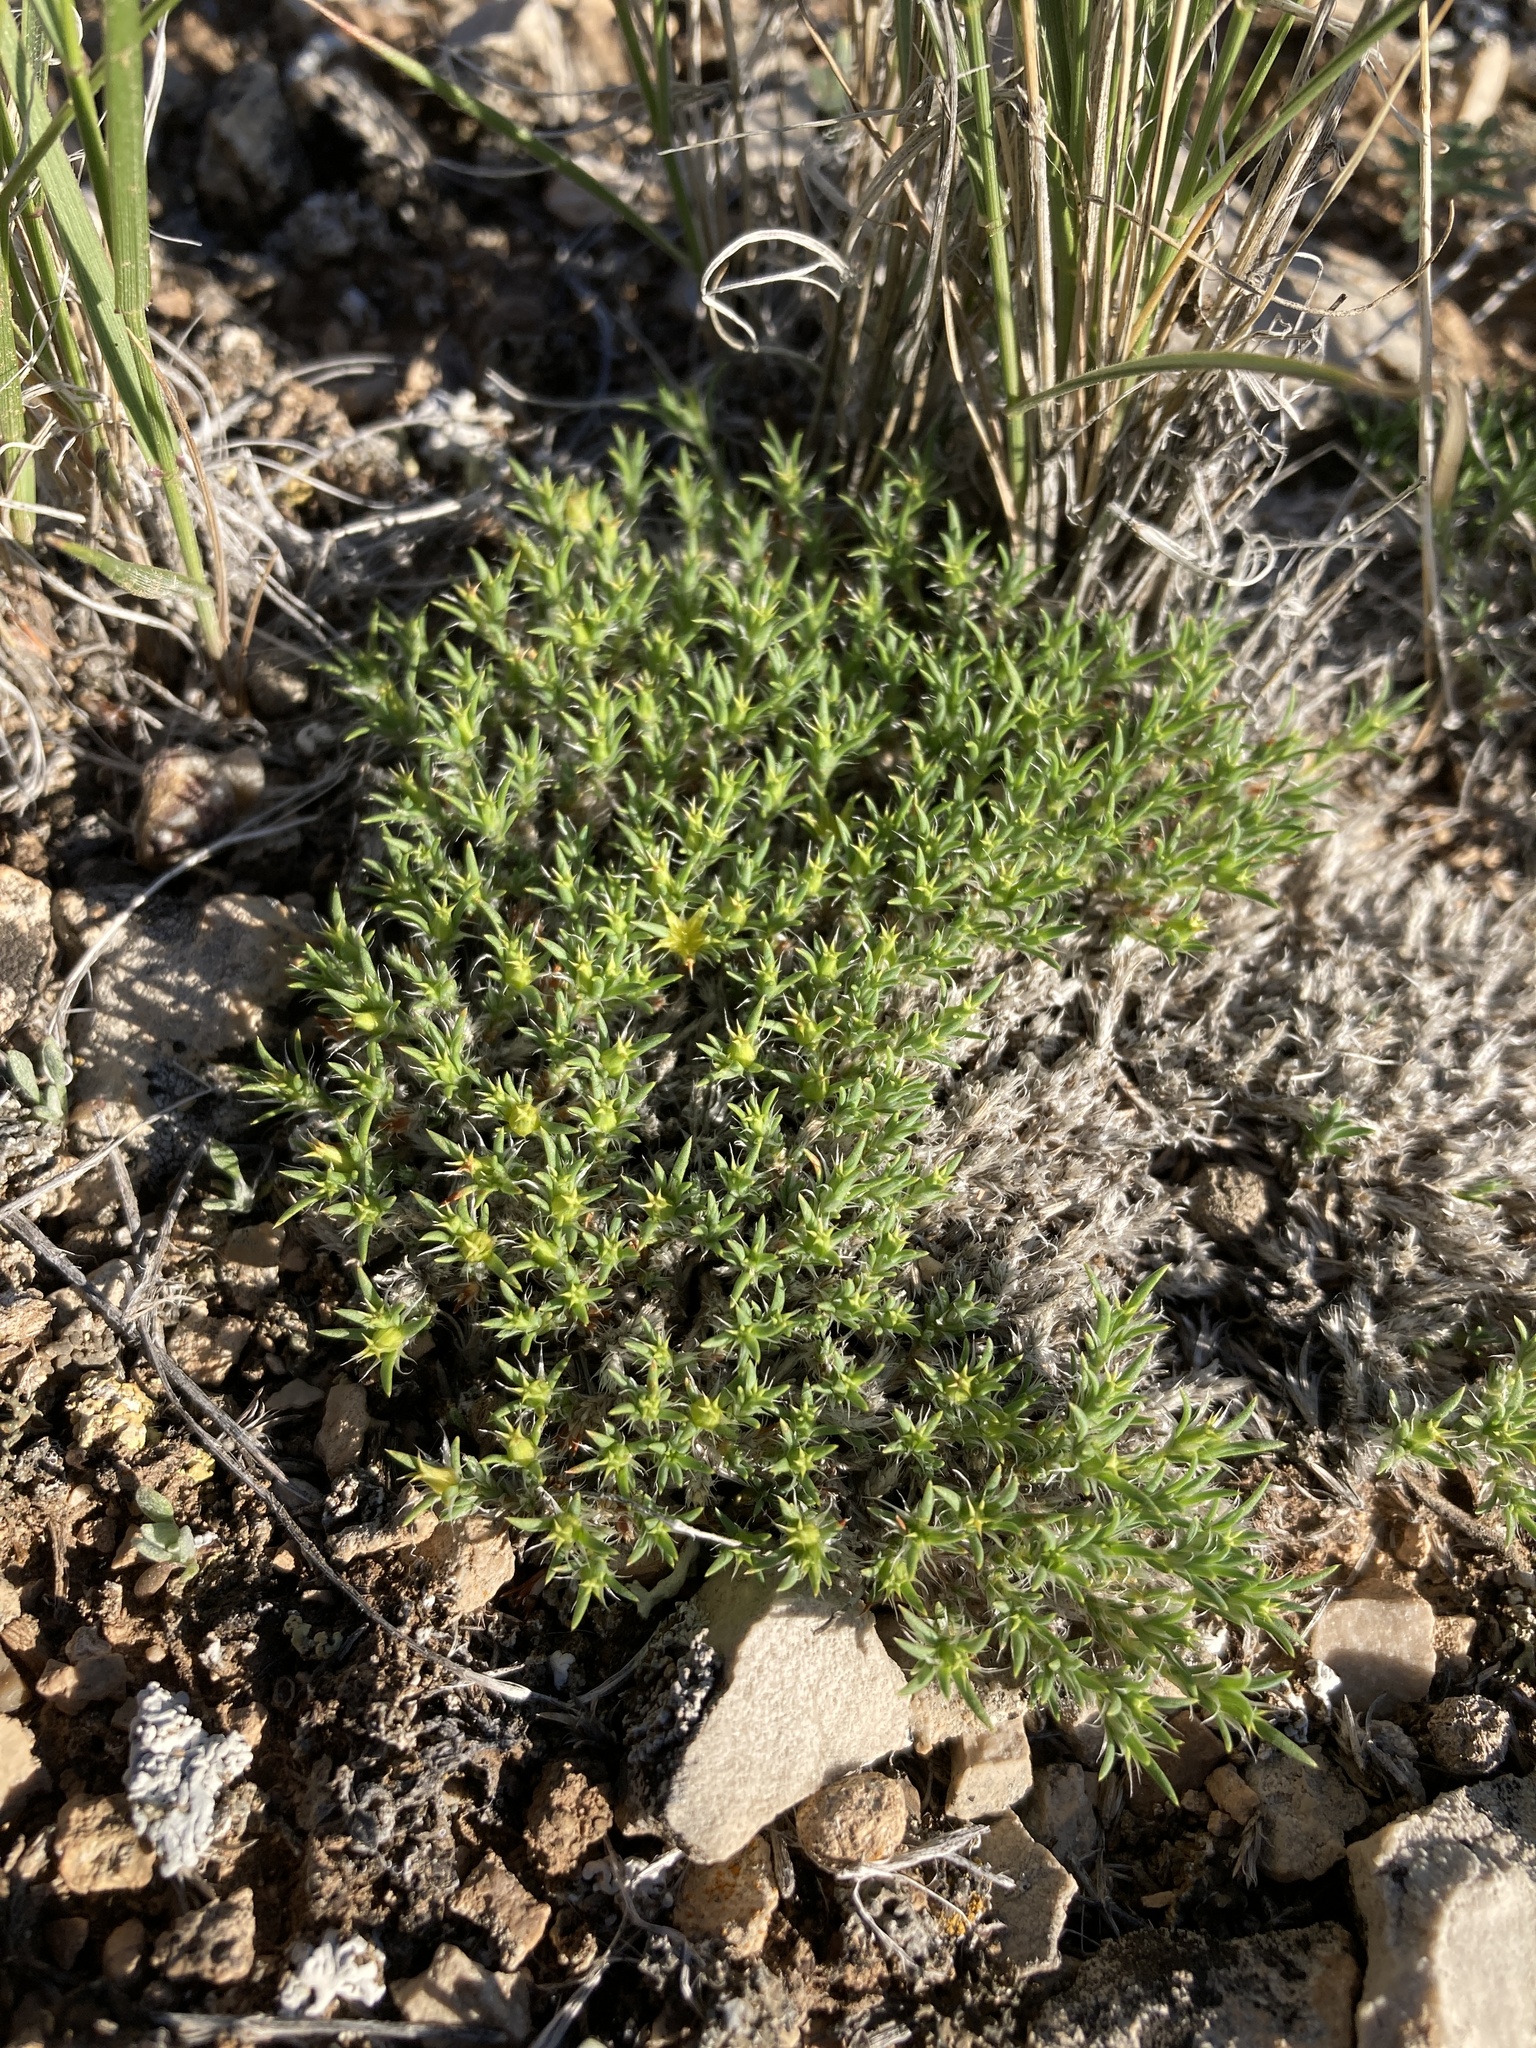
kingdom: Plantae
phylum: Tracheophyta
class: Magnoliopsida
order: Caryophyllales
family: Caryophyllaceae
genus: Paronychia
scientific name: Paronychia sessiliflora
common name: Creeping nailwort
